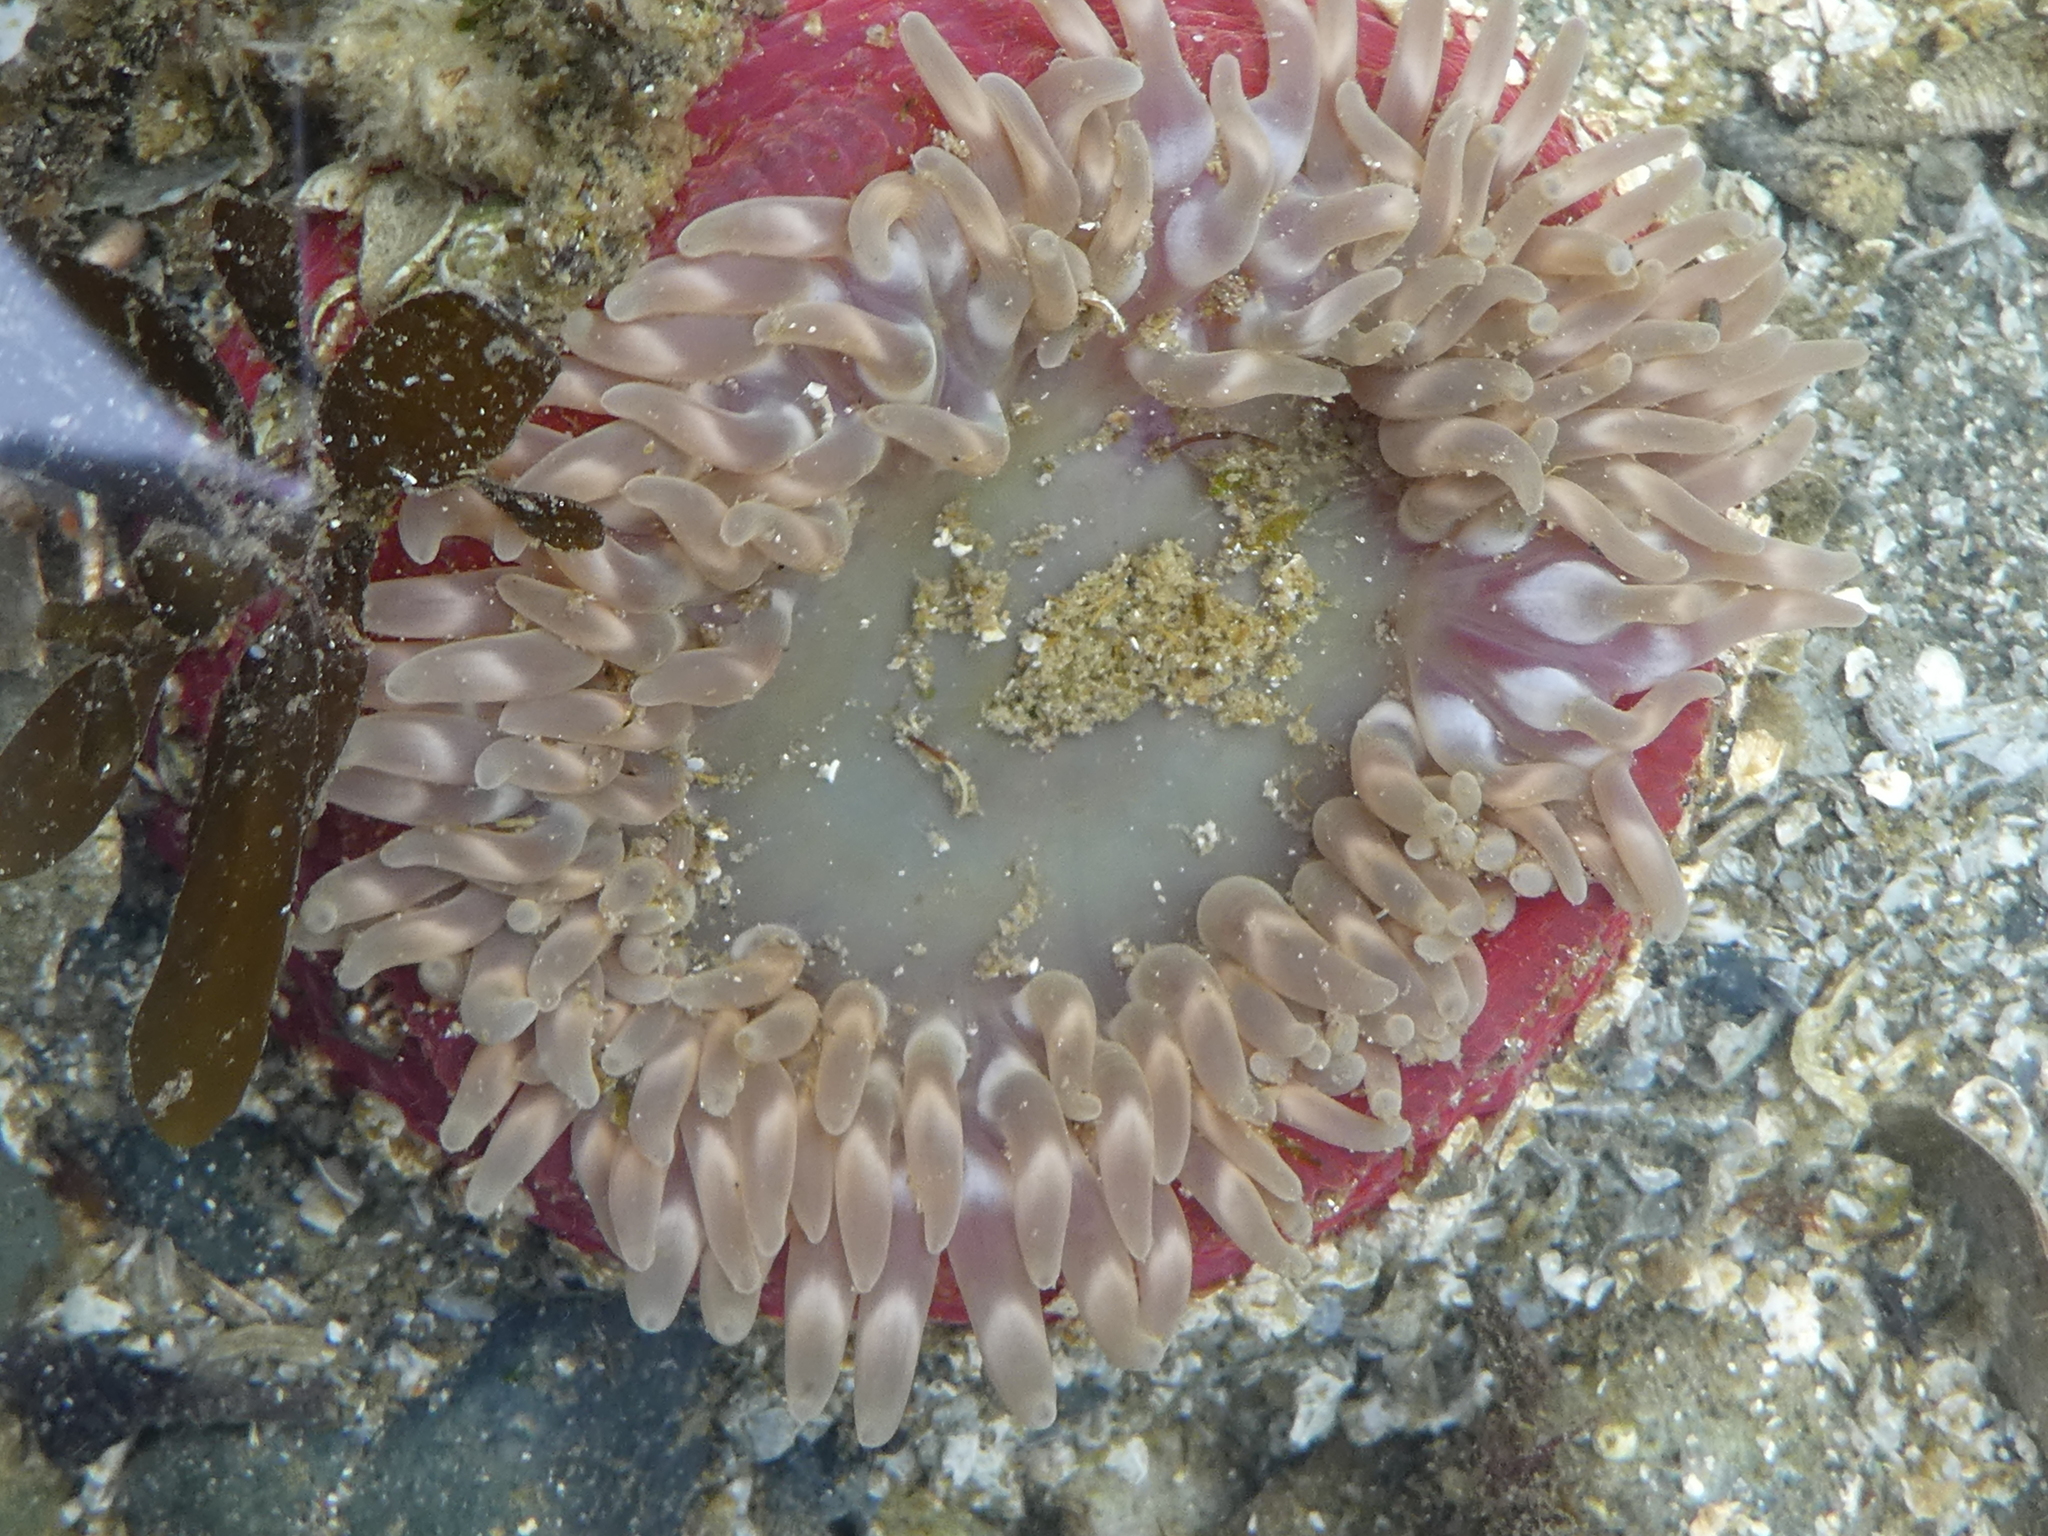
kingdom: Animalia
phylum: Cnidaria
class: Anthozoa
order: Actiniaria
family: Actiniidae
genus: Urticina
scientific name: Urticina clandestina
